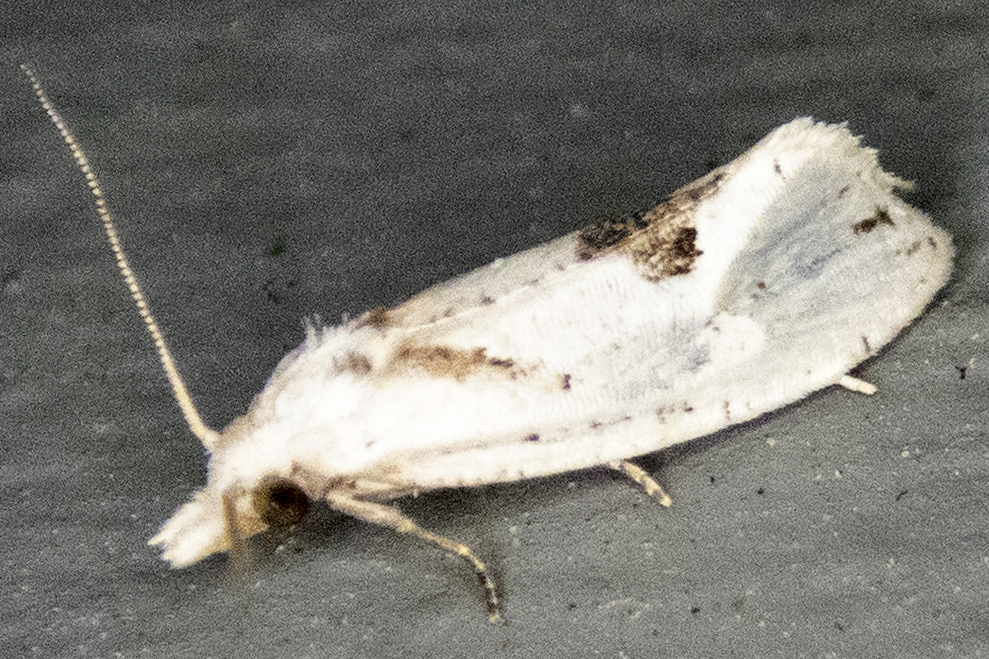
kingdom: Animalia
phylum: Arthropoda
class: Insecta
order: Lepidoptera
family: Tortricidae
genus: Aethes
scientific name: Aethes mymara
